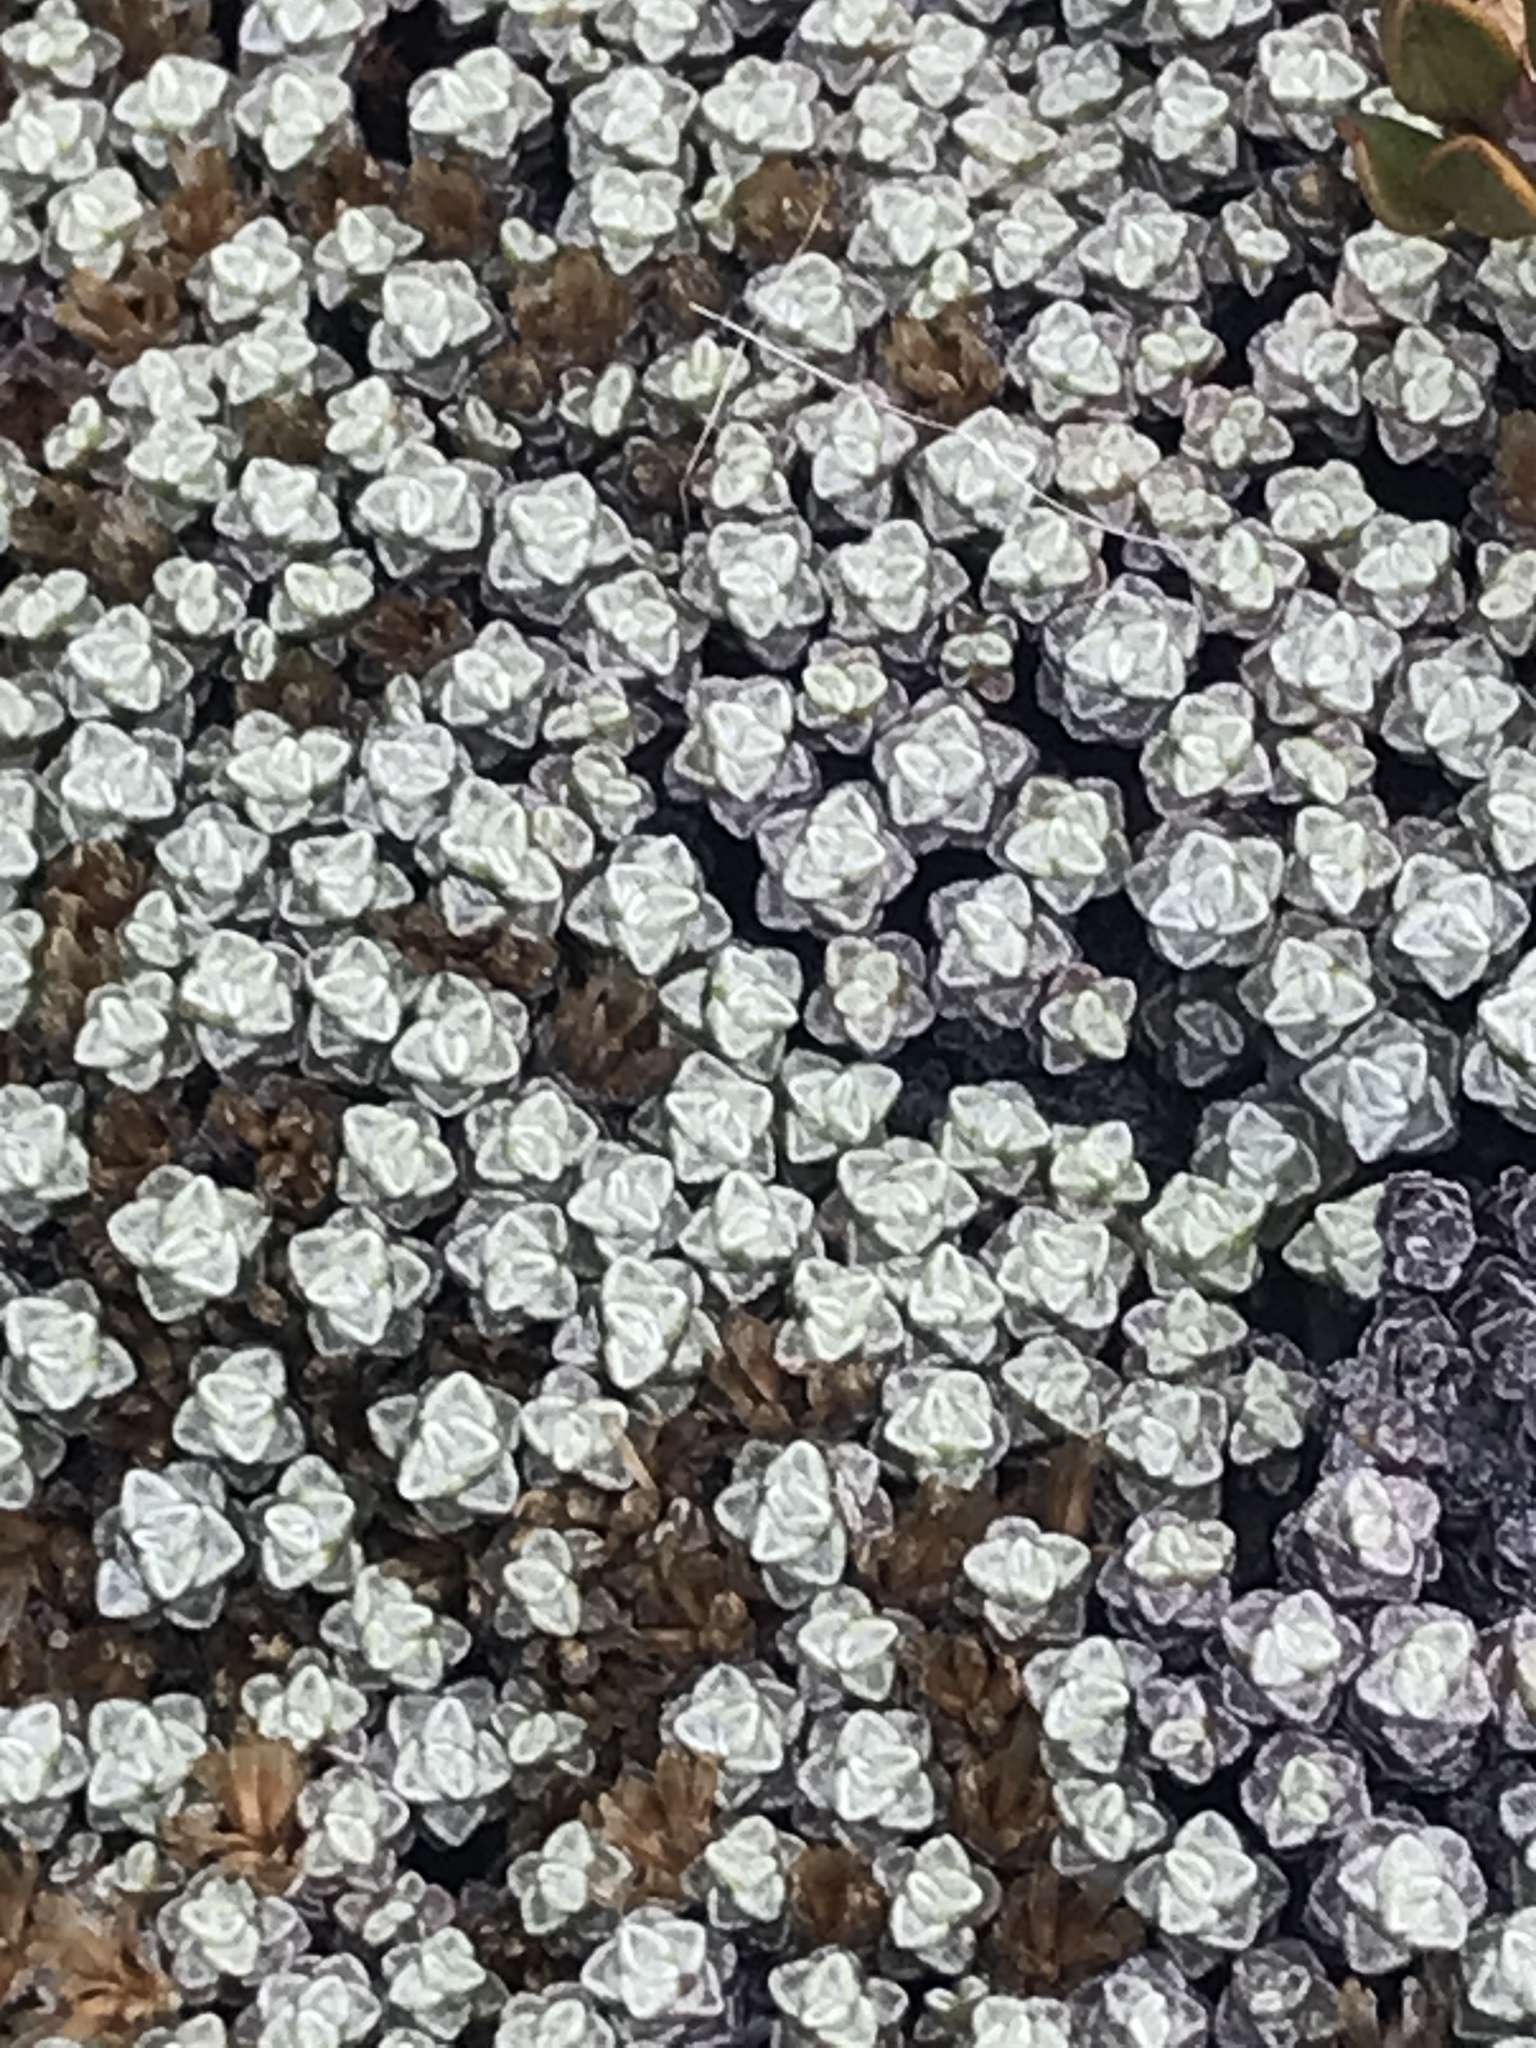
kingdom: Plantae
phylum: Tracheophyta
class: Magnoliopsida
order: Asterales
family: Asteraceae
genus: Raoulia
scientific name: Raoulia australis
